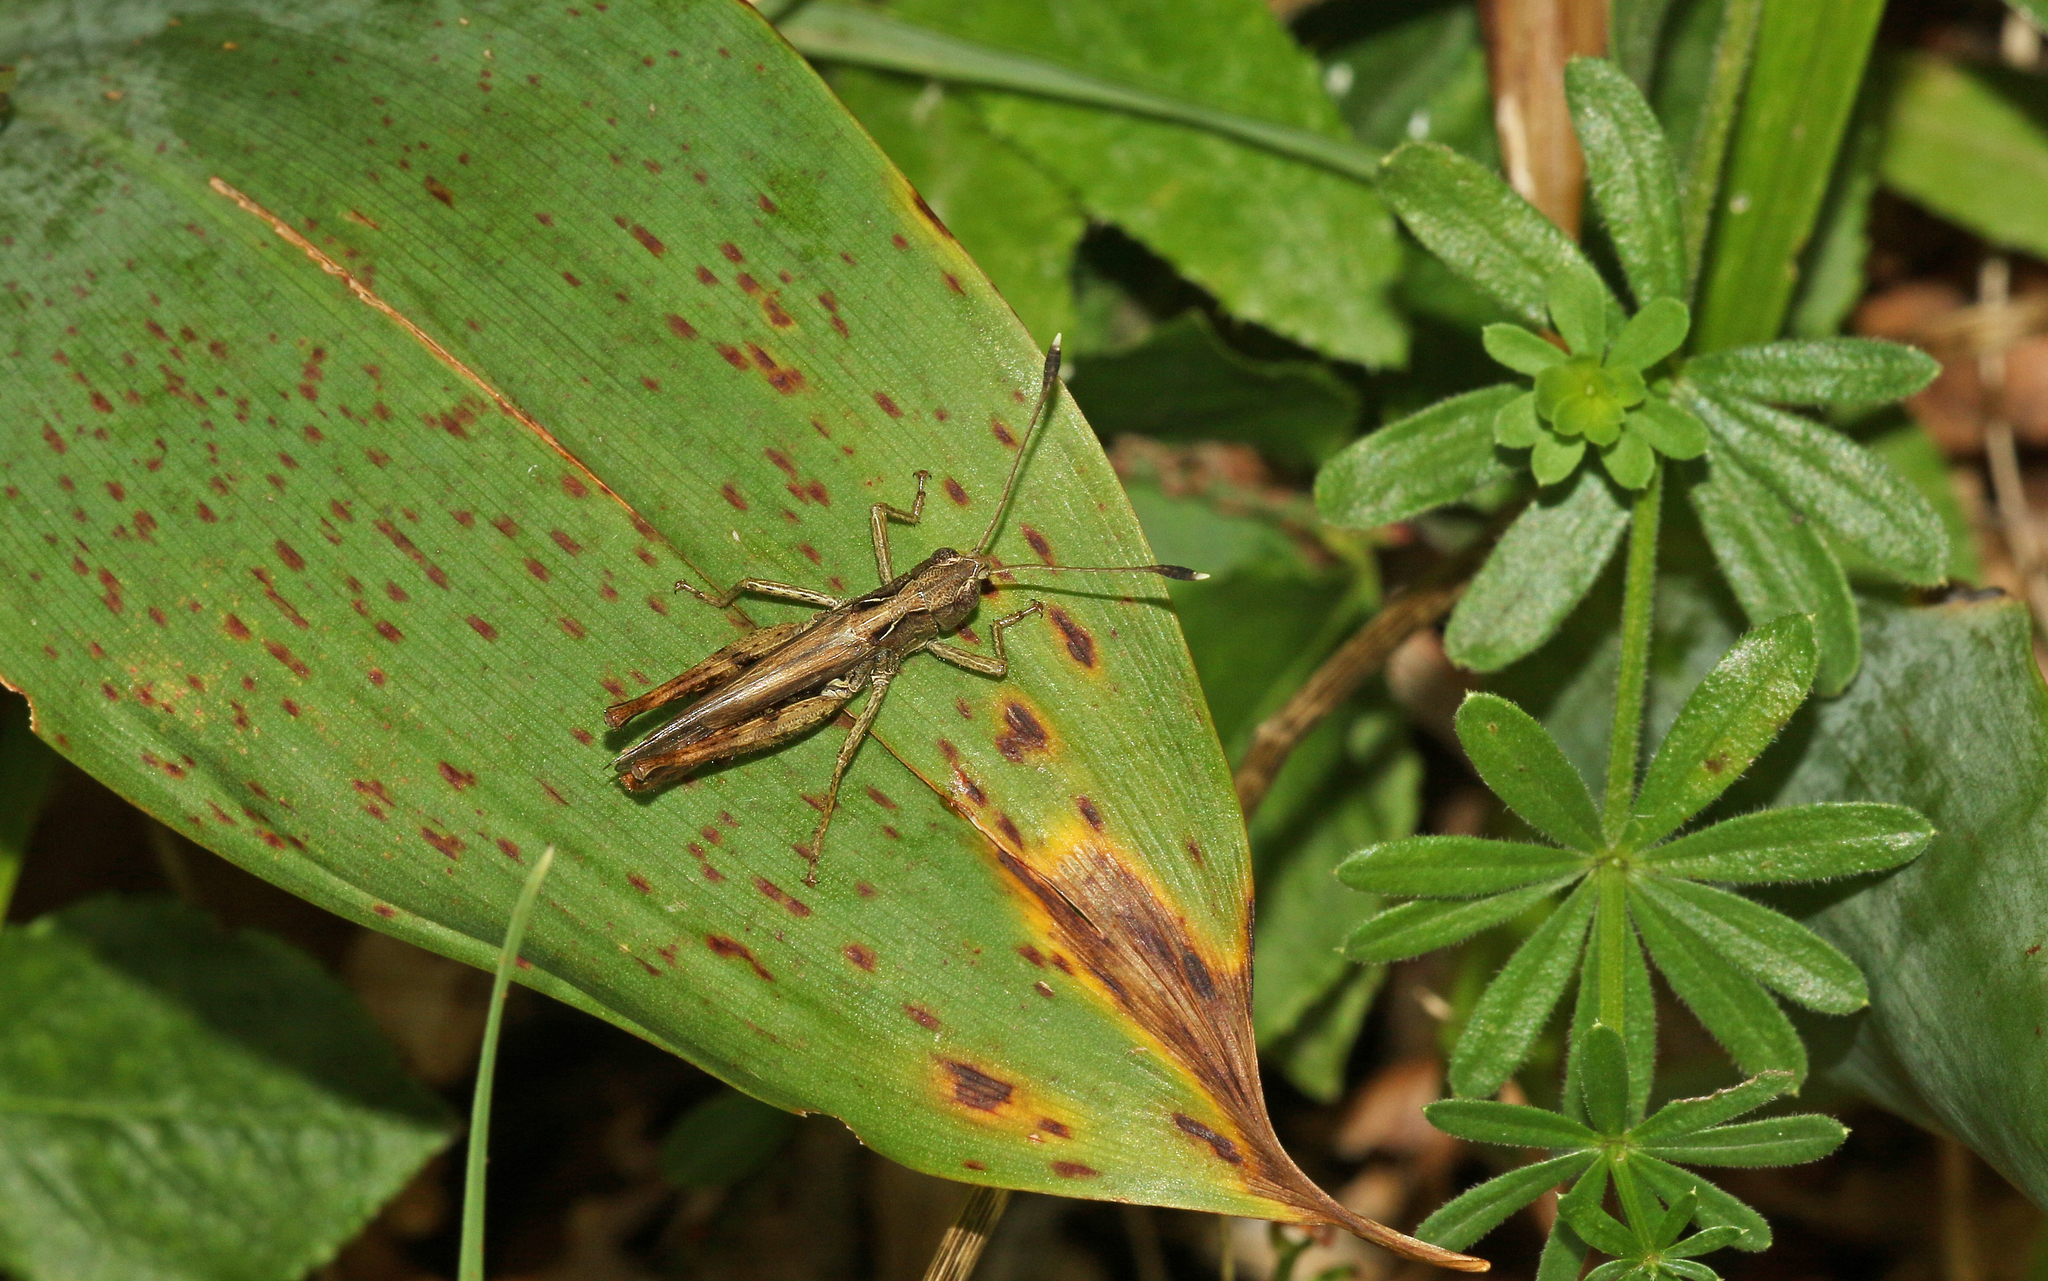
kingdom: Animalia
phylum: Arthropoda
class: Insecta
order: Orthoptera
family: Acrididae
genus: Gomphocerippus
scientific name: Gomphocerippus rufus
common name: Rufous grasshopper
